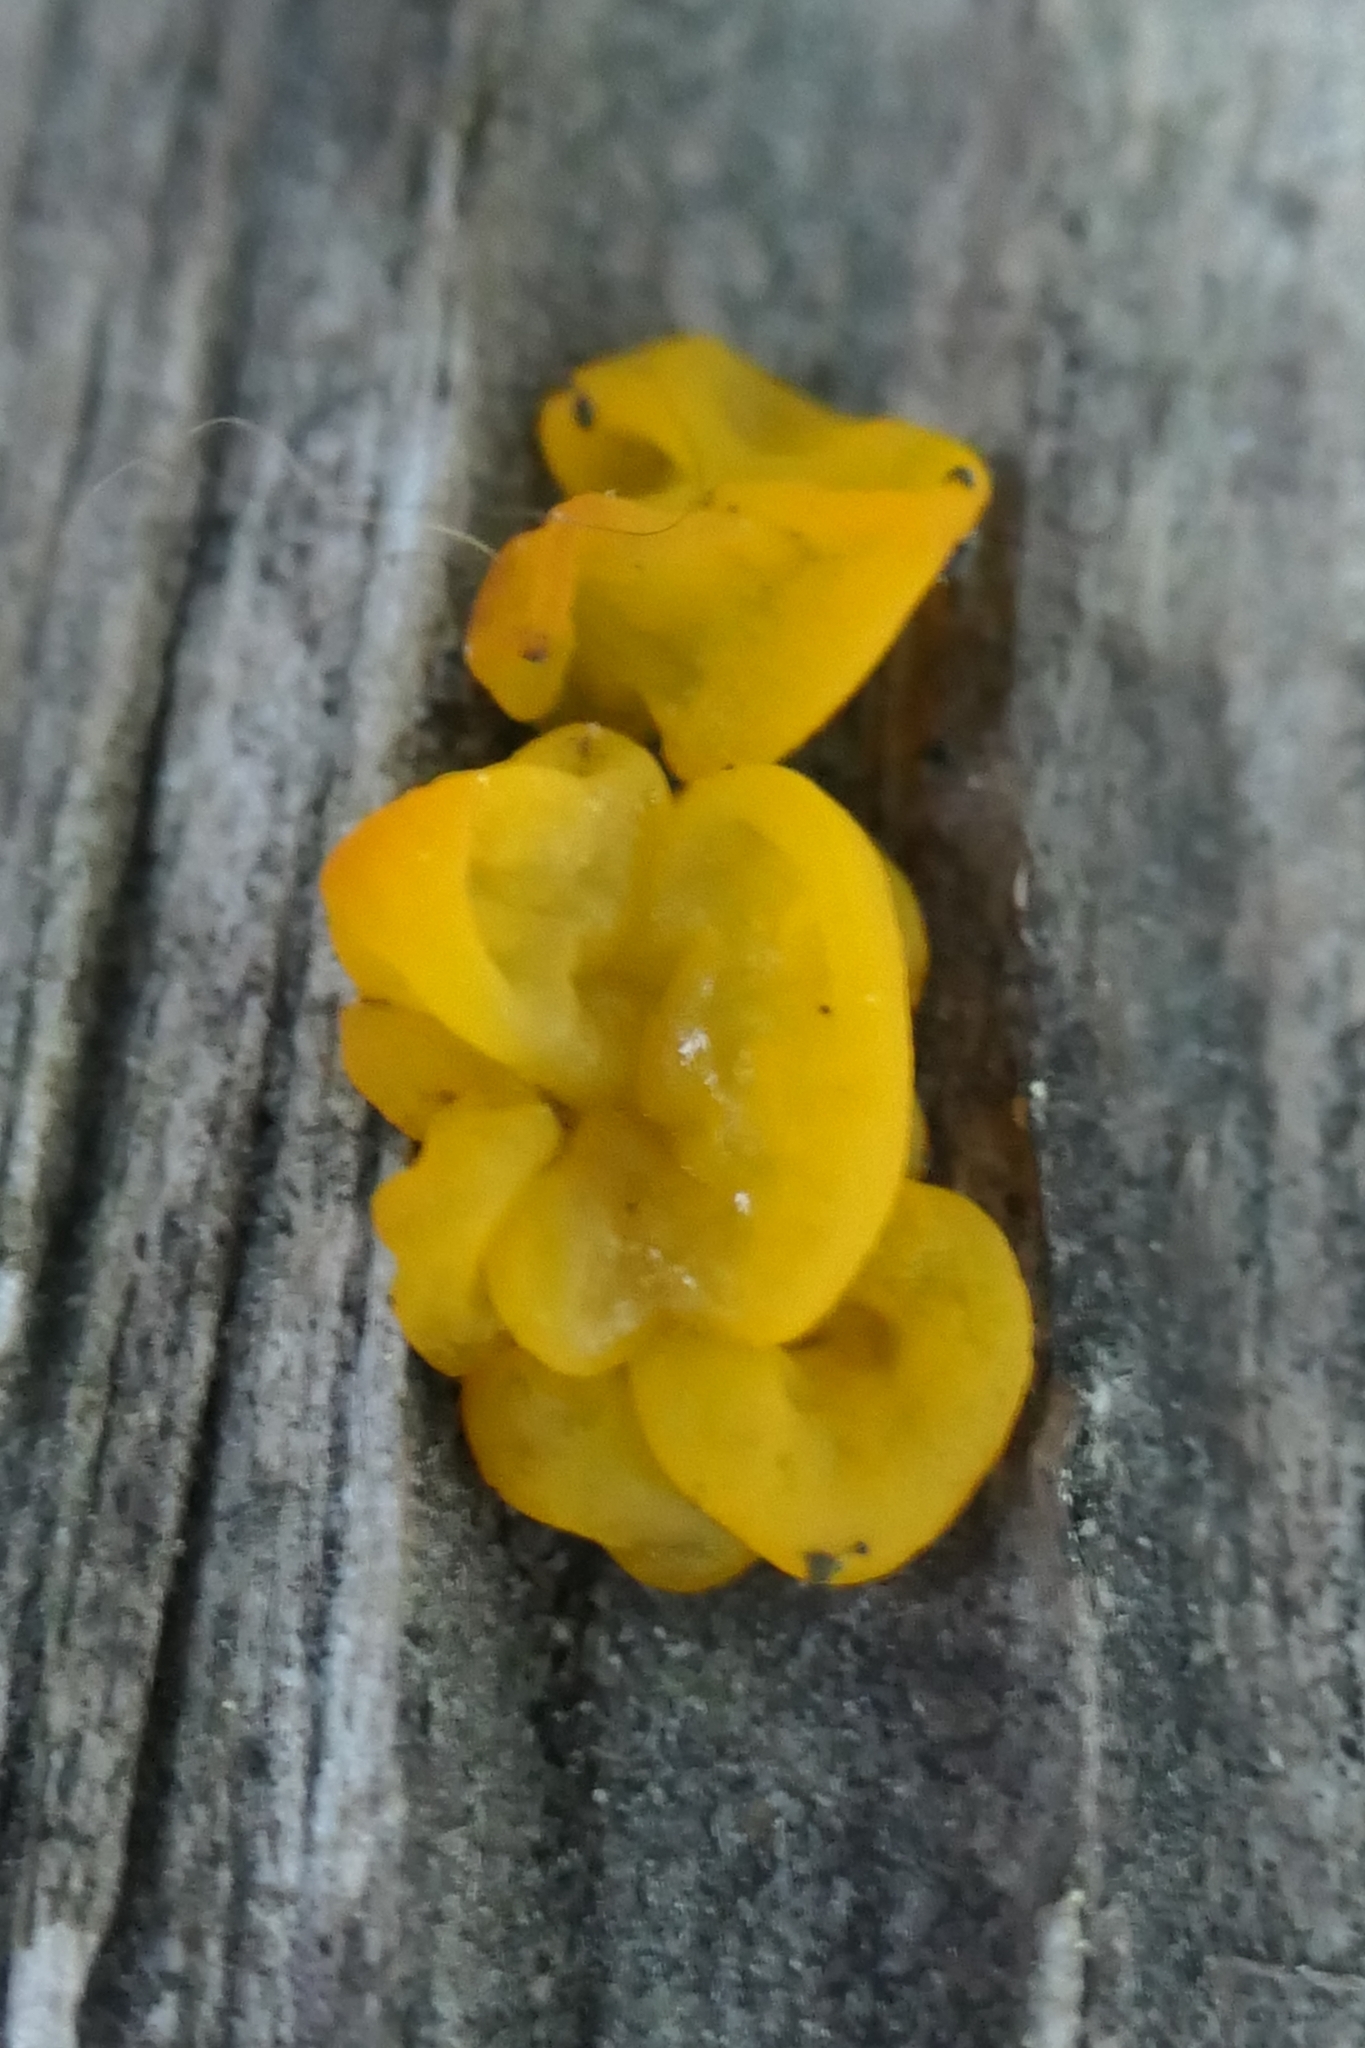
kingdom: Fungi
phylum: Basidiomycota
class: Tremellomycetes
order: Tremellales
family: Tremellaceae
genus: Tremella
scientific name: Tremella mesenterica
